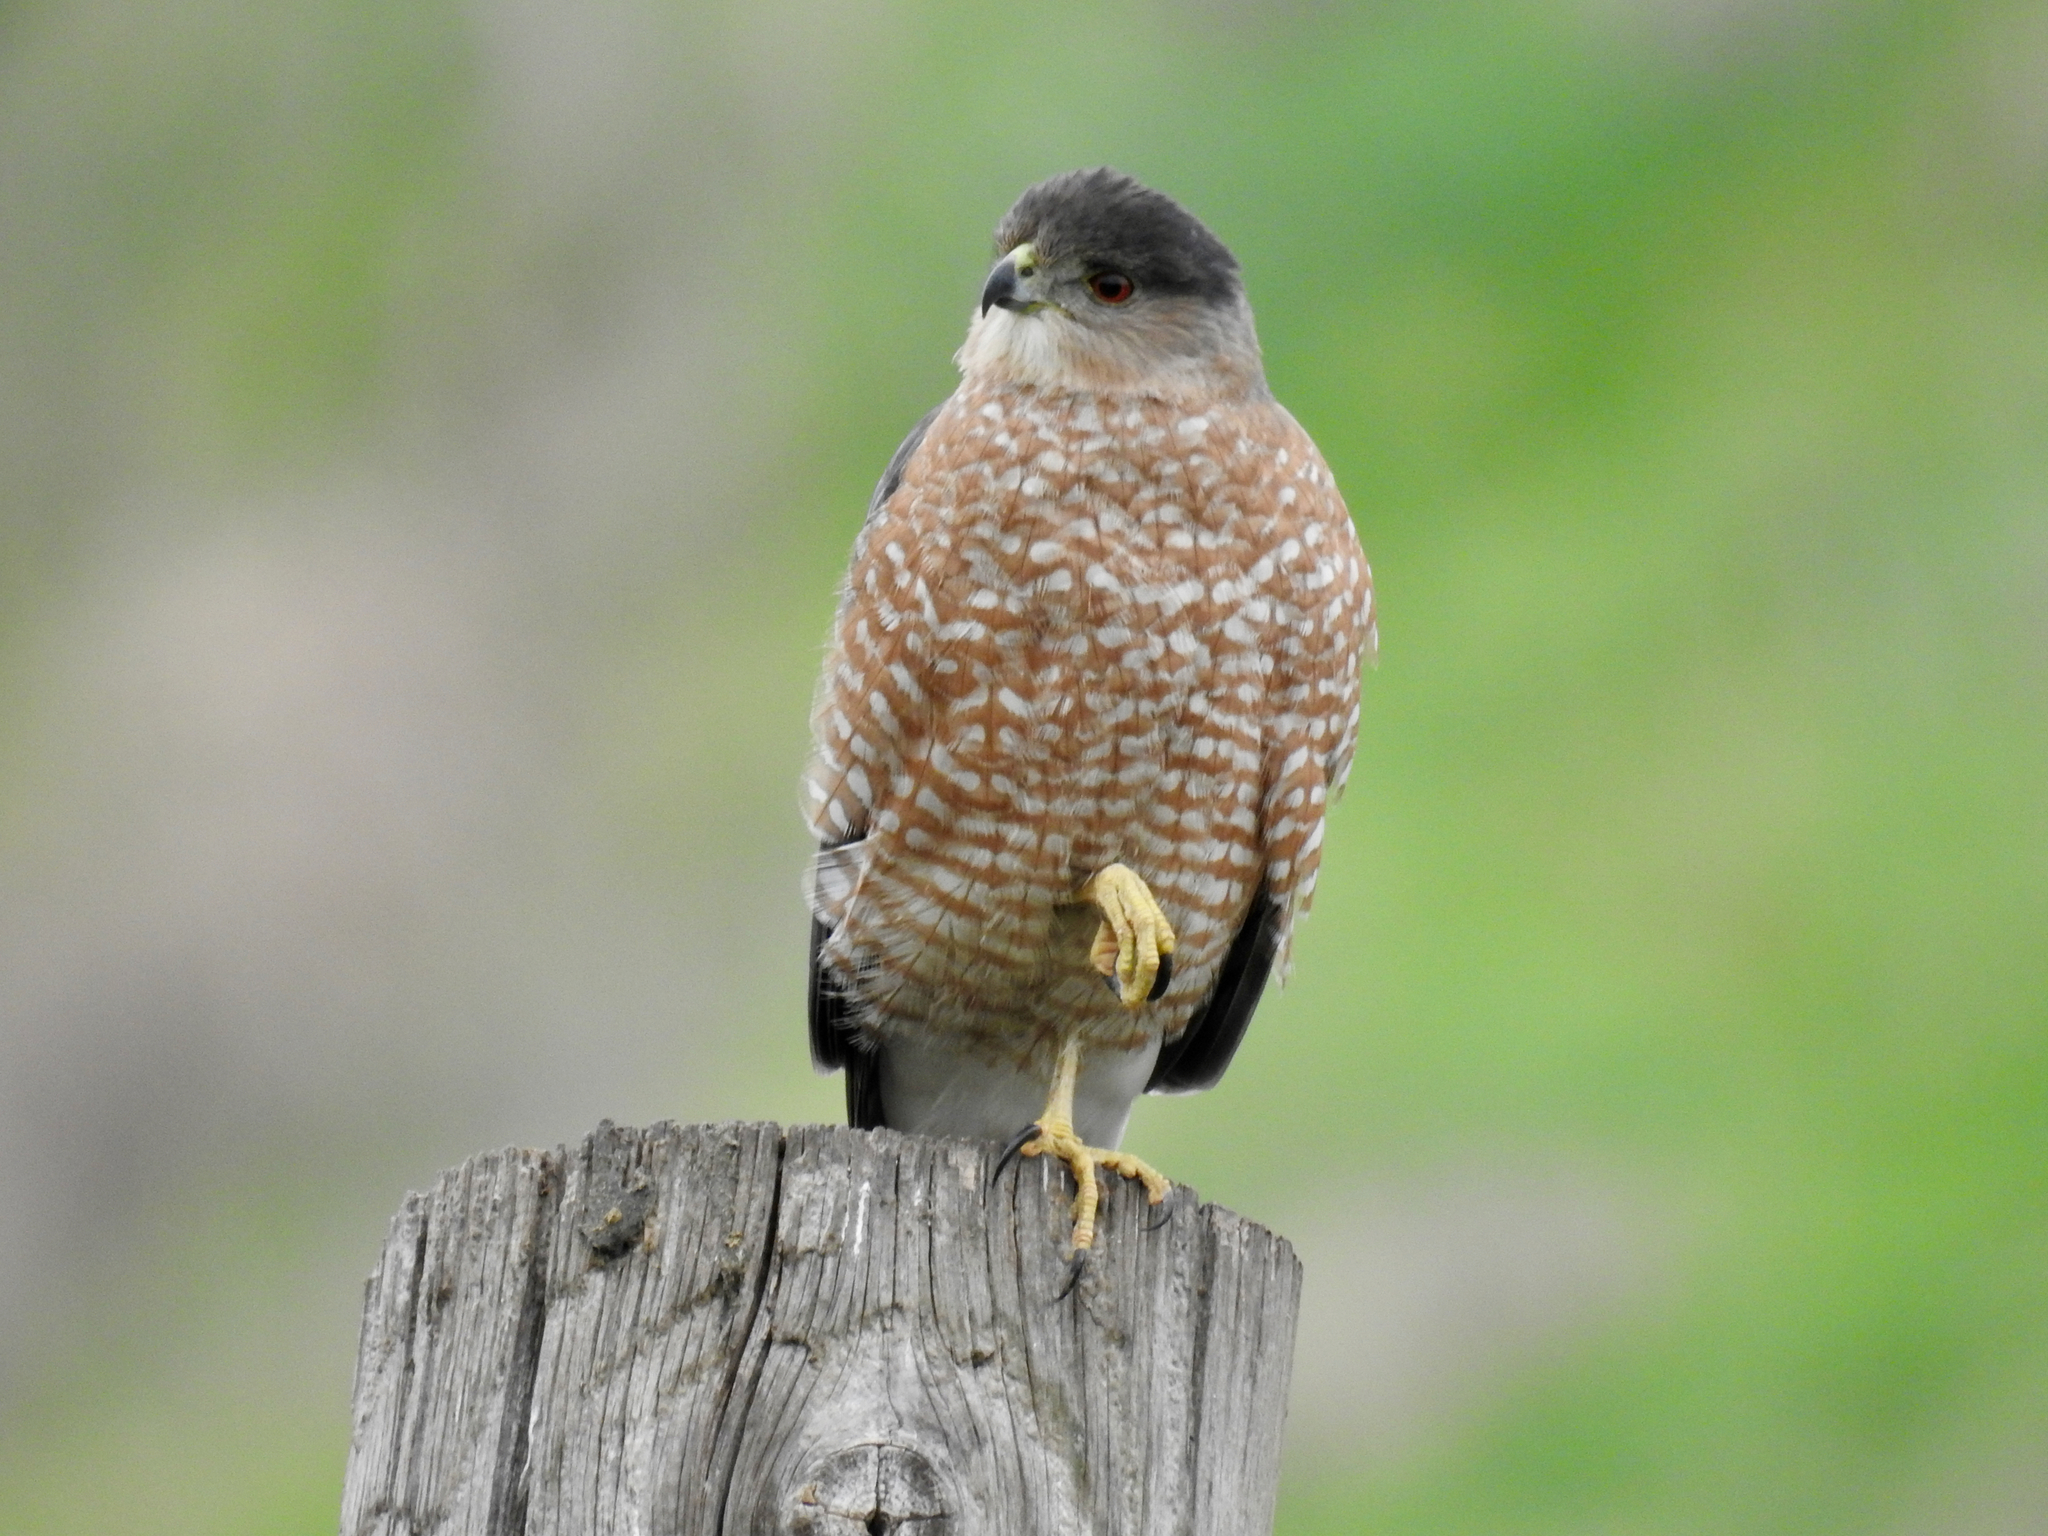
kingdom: Animalia
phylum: Chordata
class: Aves
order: Accipitriformes
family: Accipitridae
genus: Accipiter
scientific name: Accipiter cooperii
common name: Cooper's hawk
